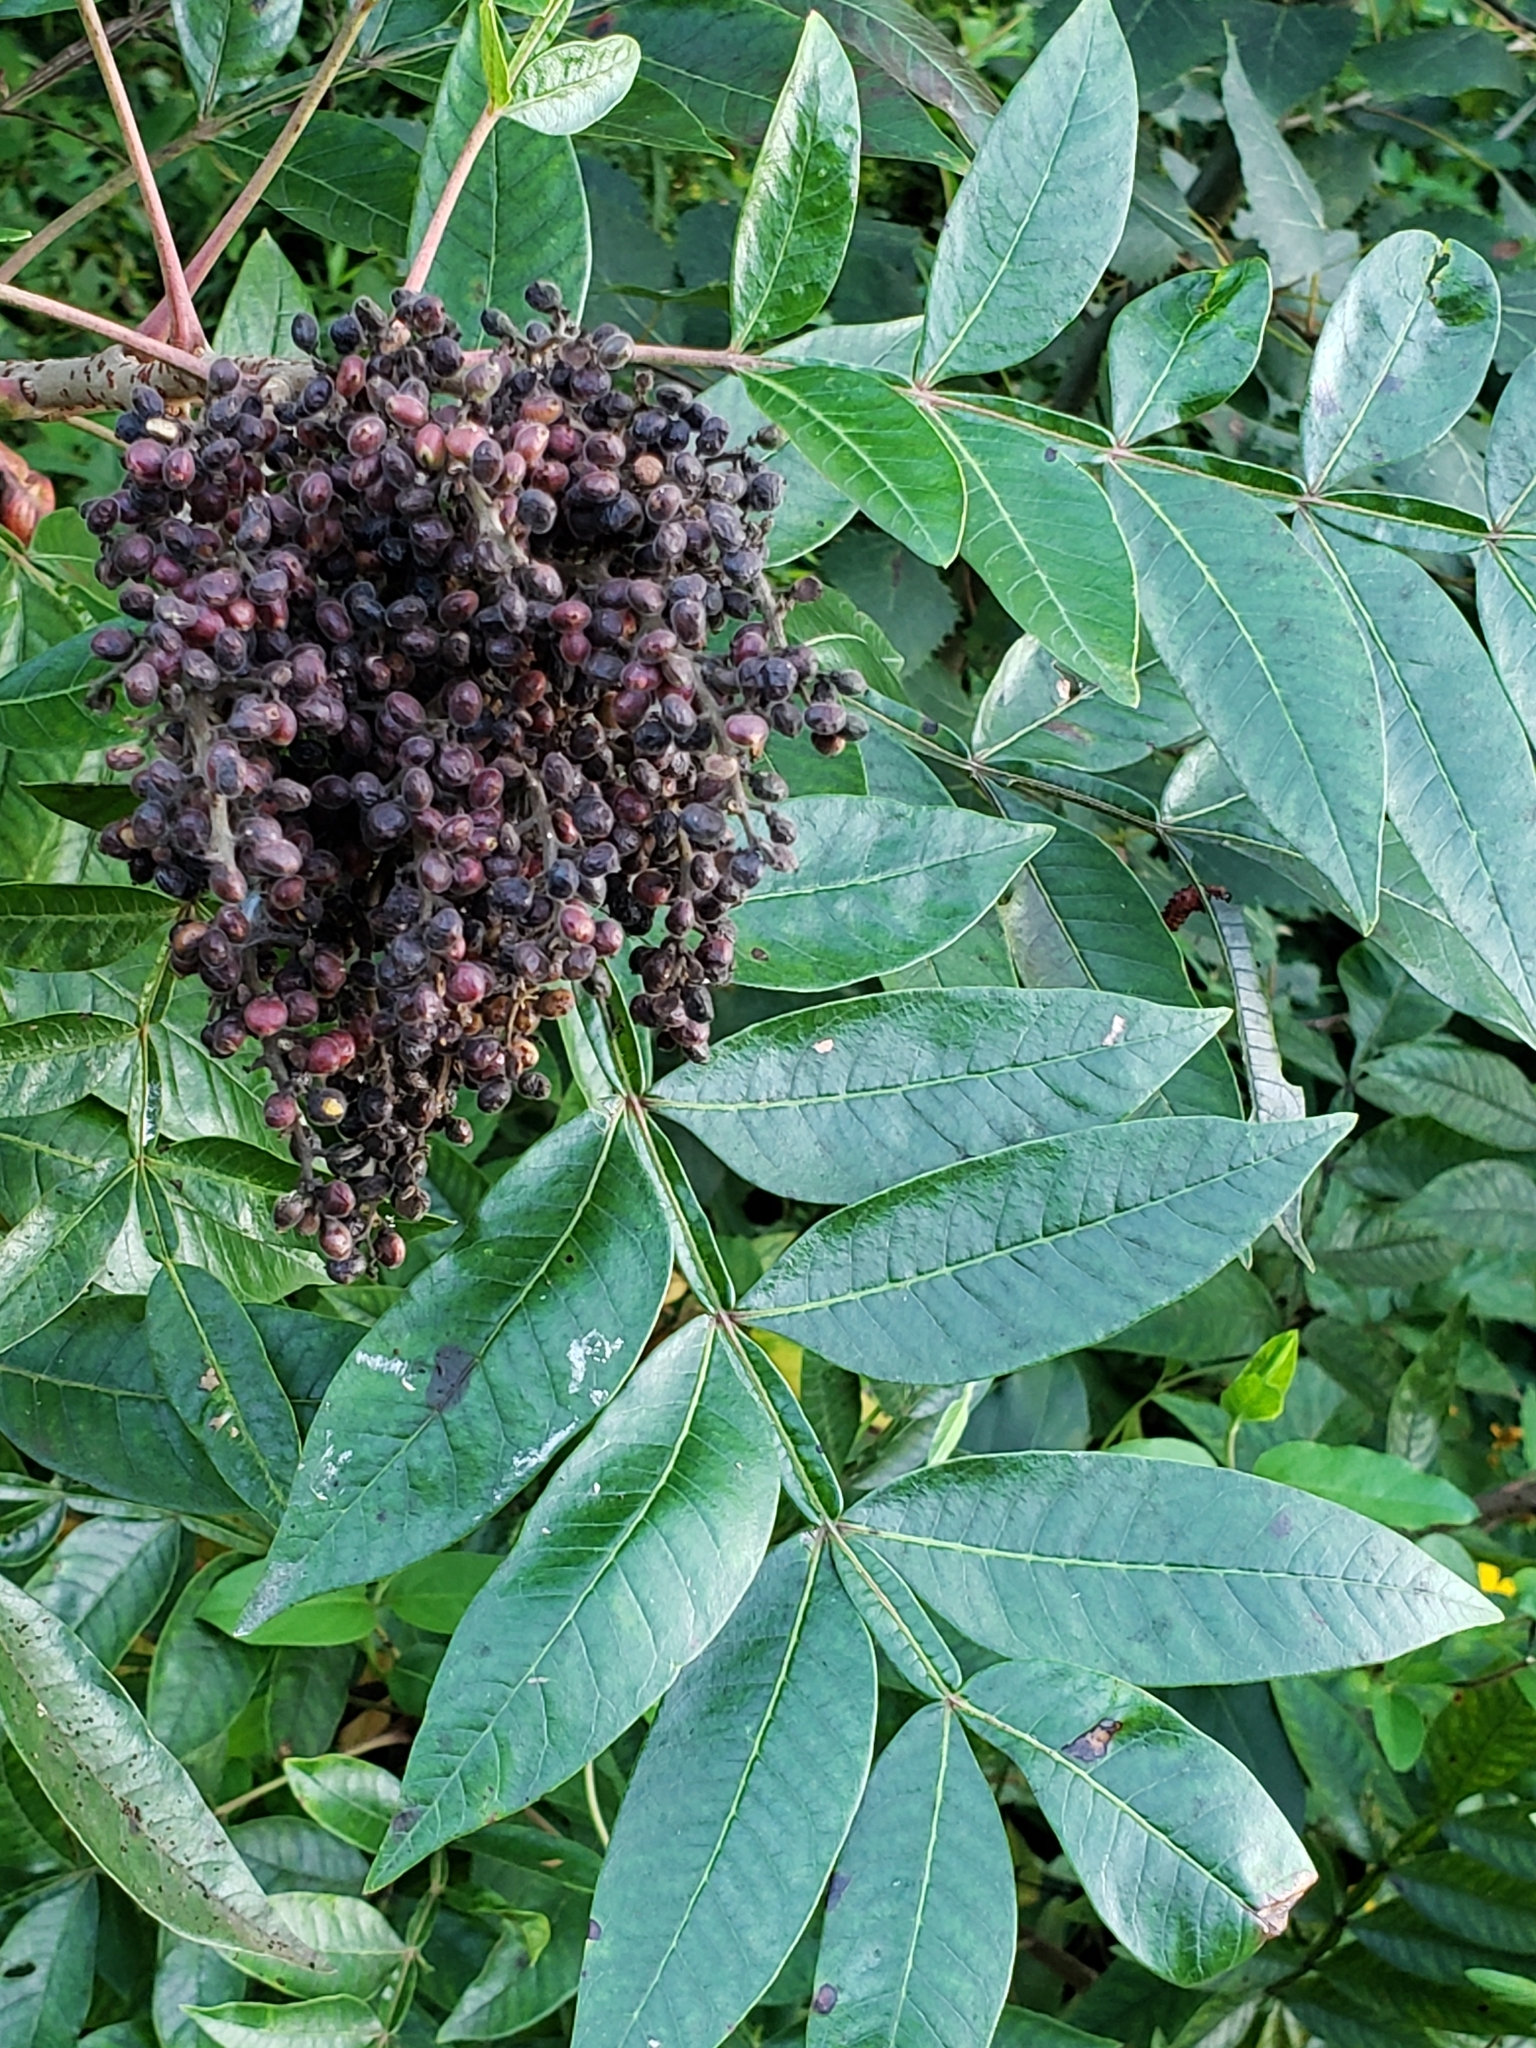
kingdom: Plantae
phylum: Tracheophyta
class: Magnoliopsida
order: Sapindales
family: Anacardiaceae
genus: Rhus
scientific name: Rhus copallina
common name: Shining sumac
